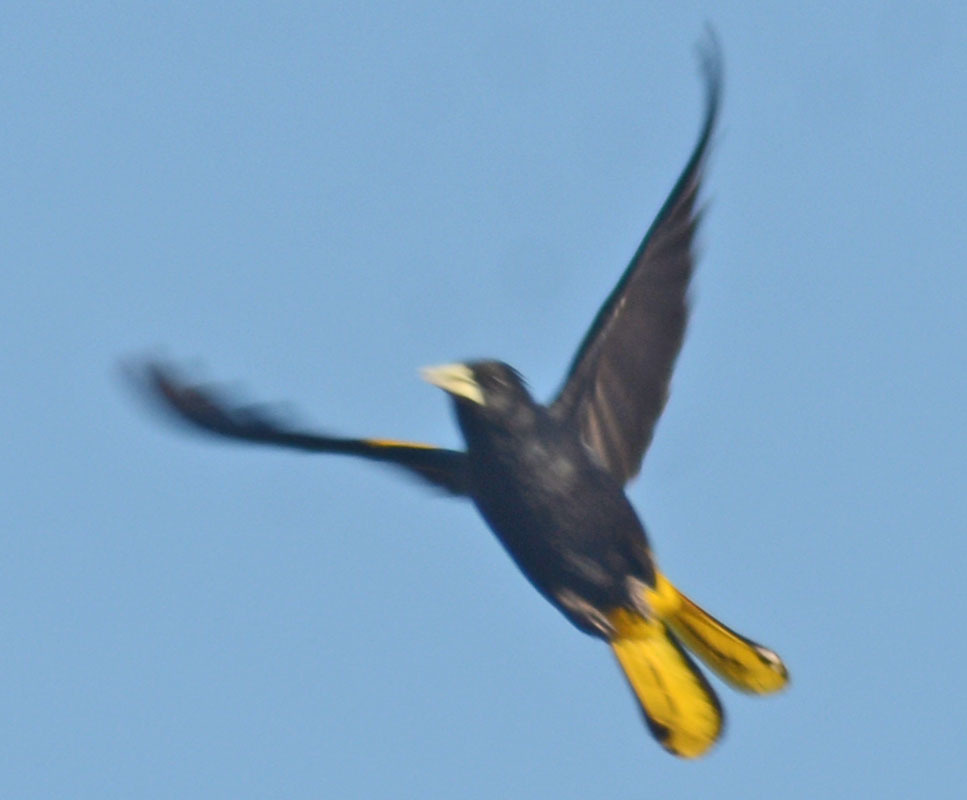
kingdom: Animalia
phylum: Chordata
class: Aves
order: Passeriformes
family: Icteridae
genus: Cacicus
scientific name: Cacicus melanicterus
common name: Yellow-winged cacique
